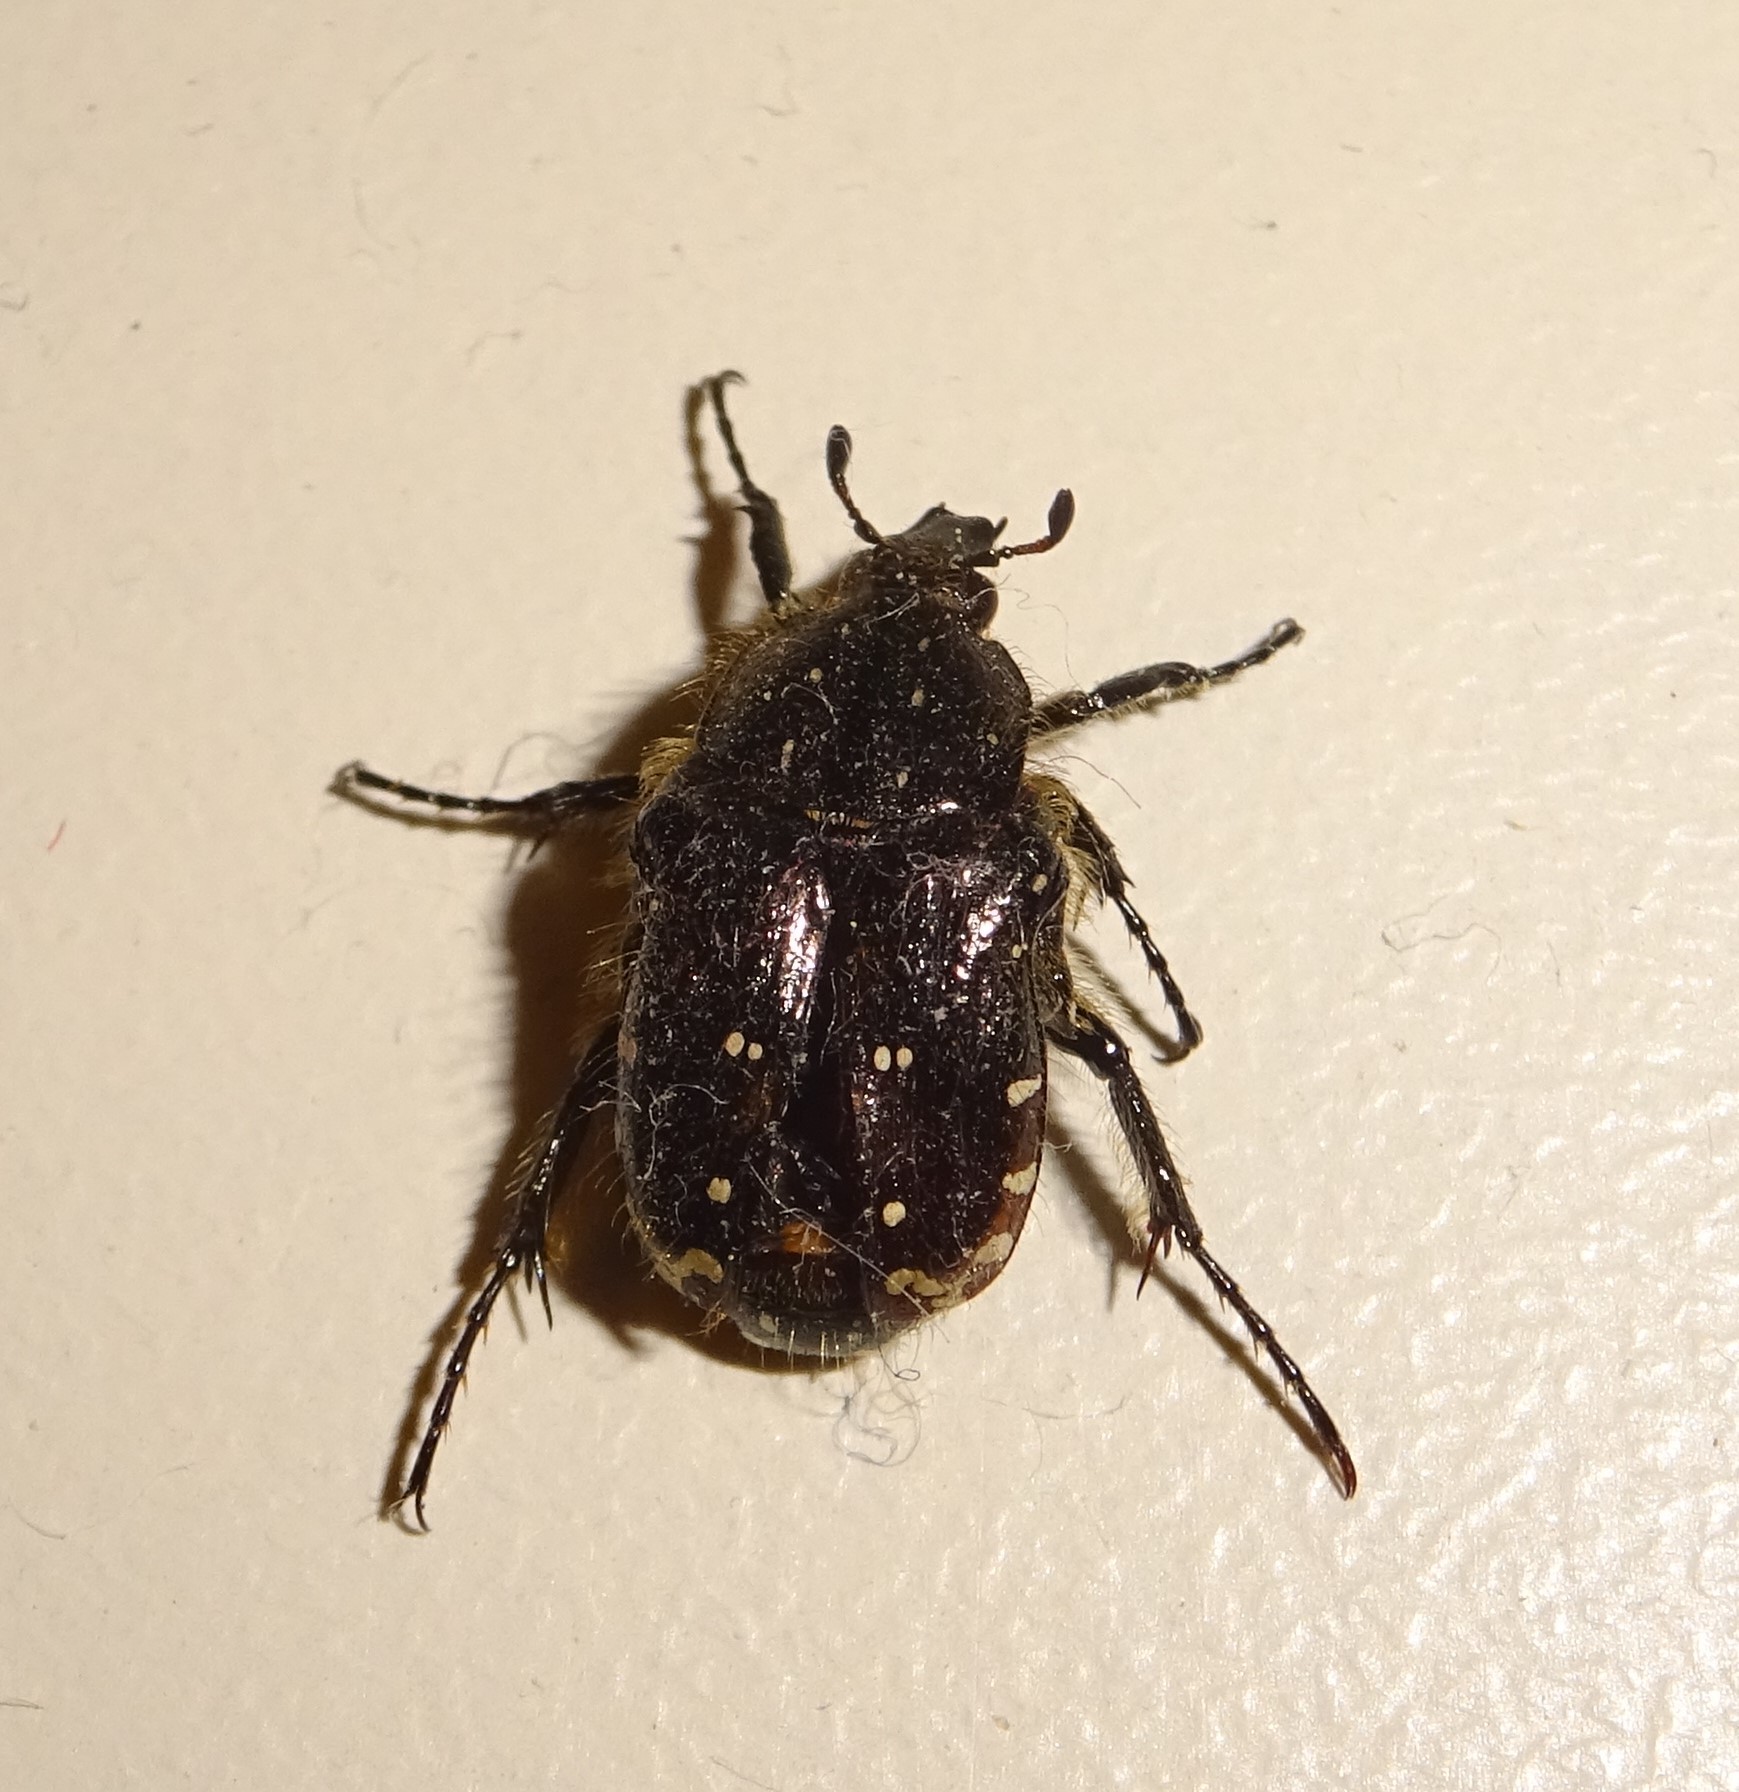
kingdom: Animalia
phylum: Arthropoda
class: Insecta
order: Coleoptera
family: Scarabaeidae
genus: Oxythyrea
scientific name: Oxythyrea funesta
